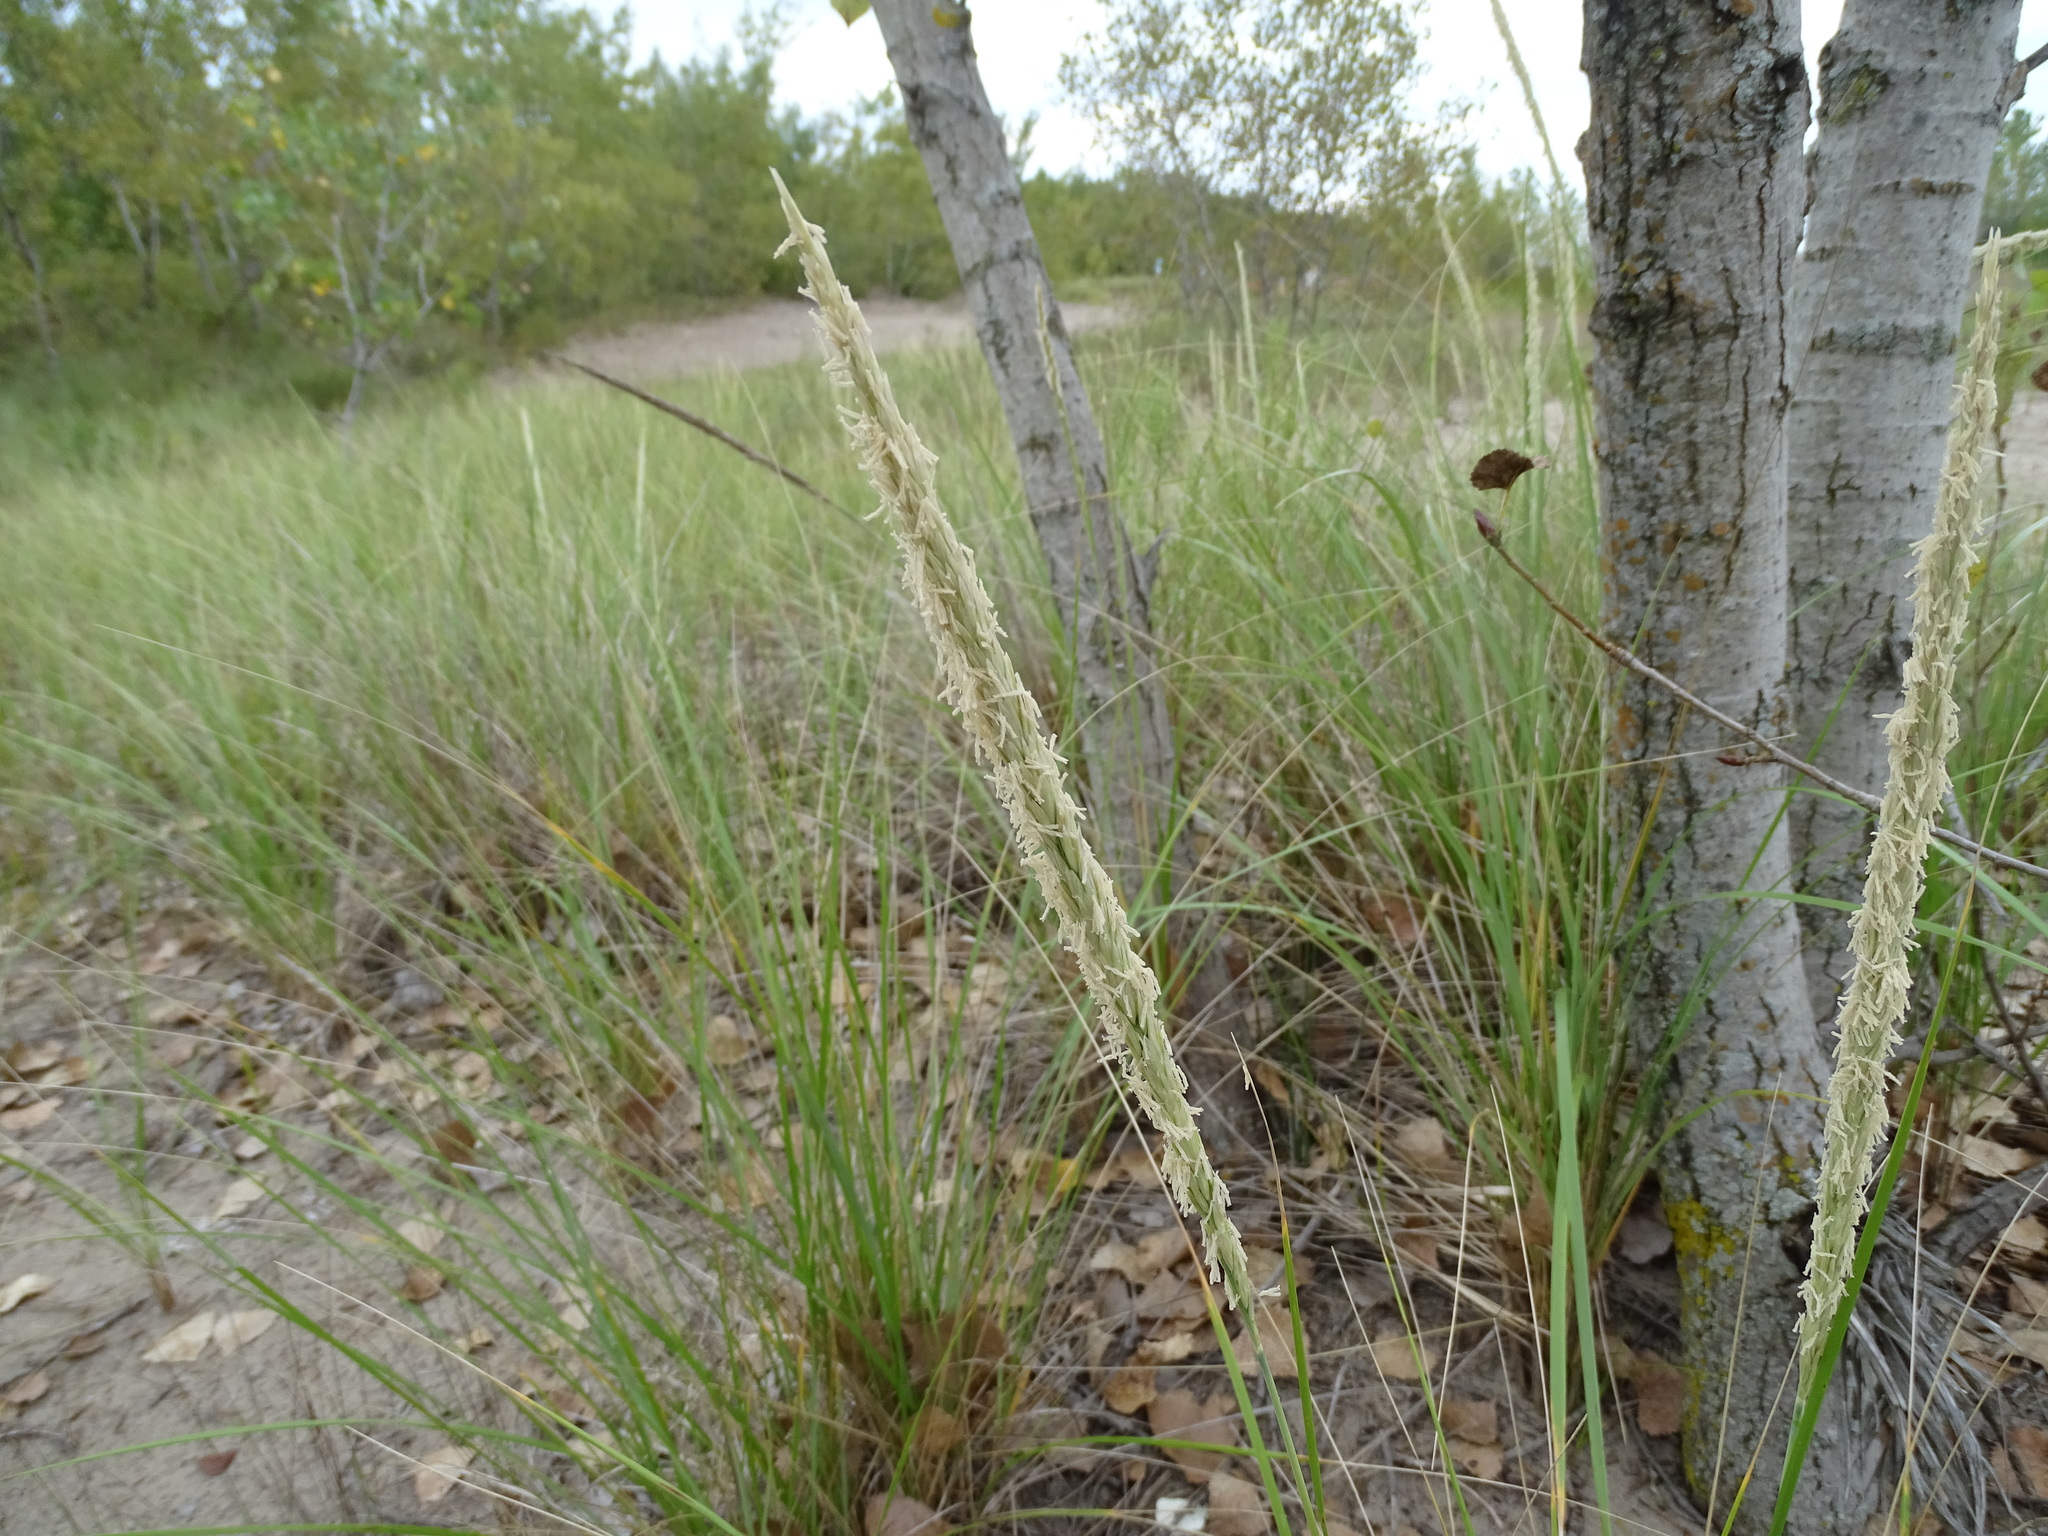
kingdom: Plantae
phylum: Tracheophyta
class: Liliopsida
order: Poales
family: Poaceae
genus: Calamagrostis
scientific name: Calamagrostis breviligulata
